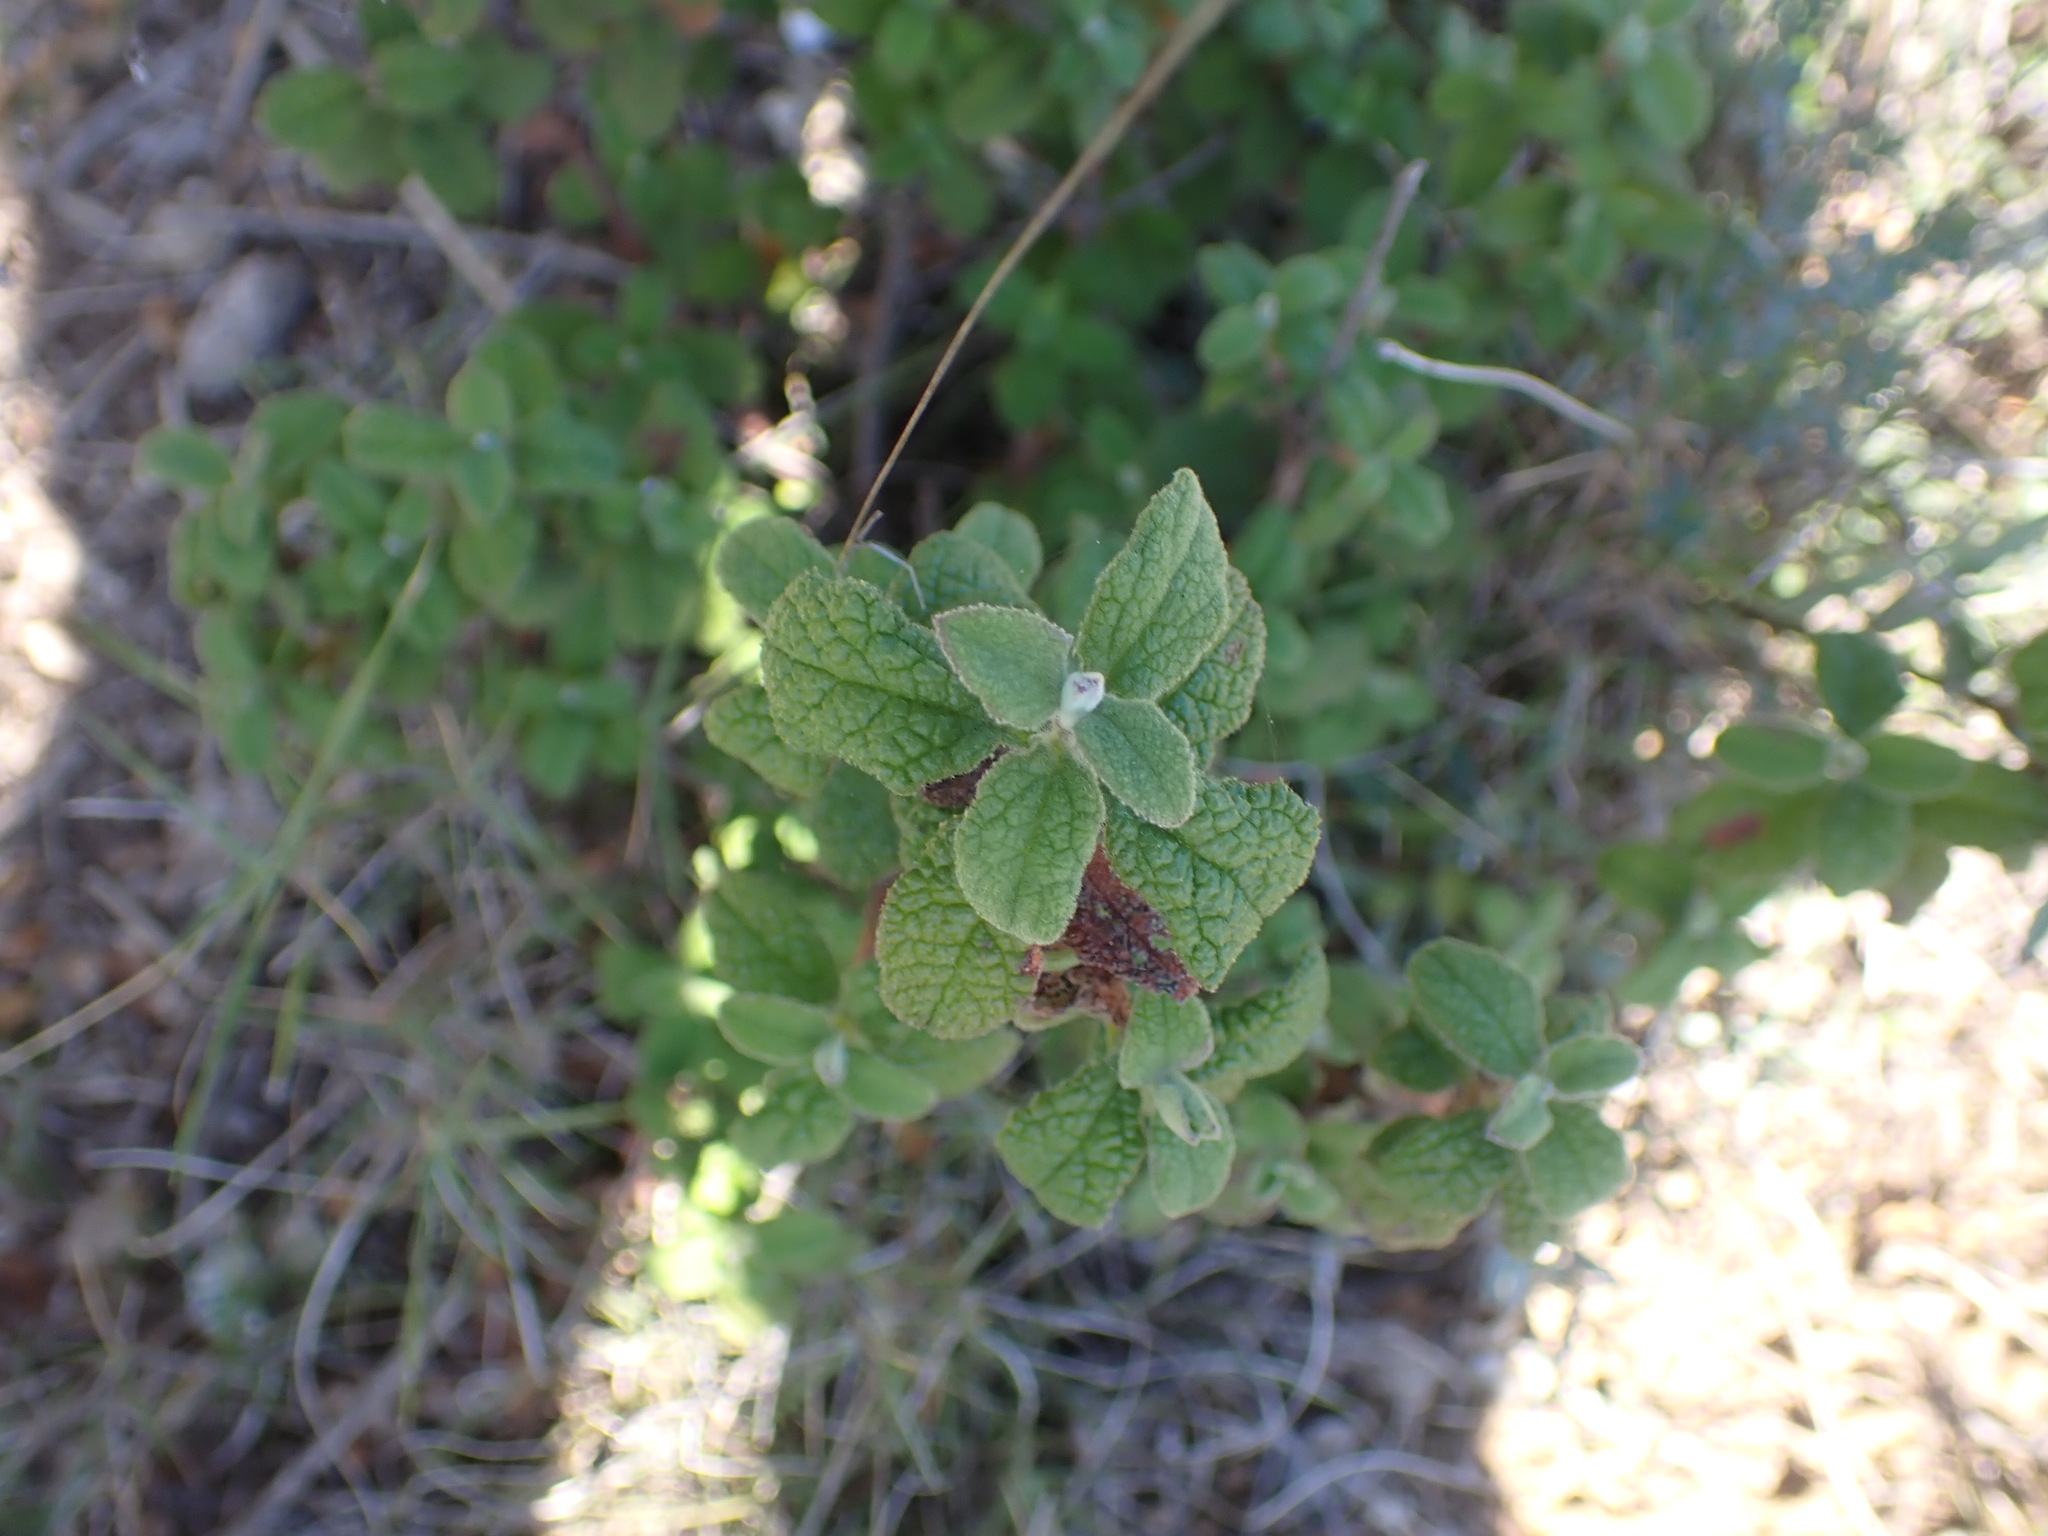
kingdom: Plantae
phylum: Tracheophyta
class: Magnoliopsida
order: Malvales
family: Cistaceae
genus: Cistus
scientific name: Cistus salviifolius
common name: Salvia cistus
